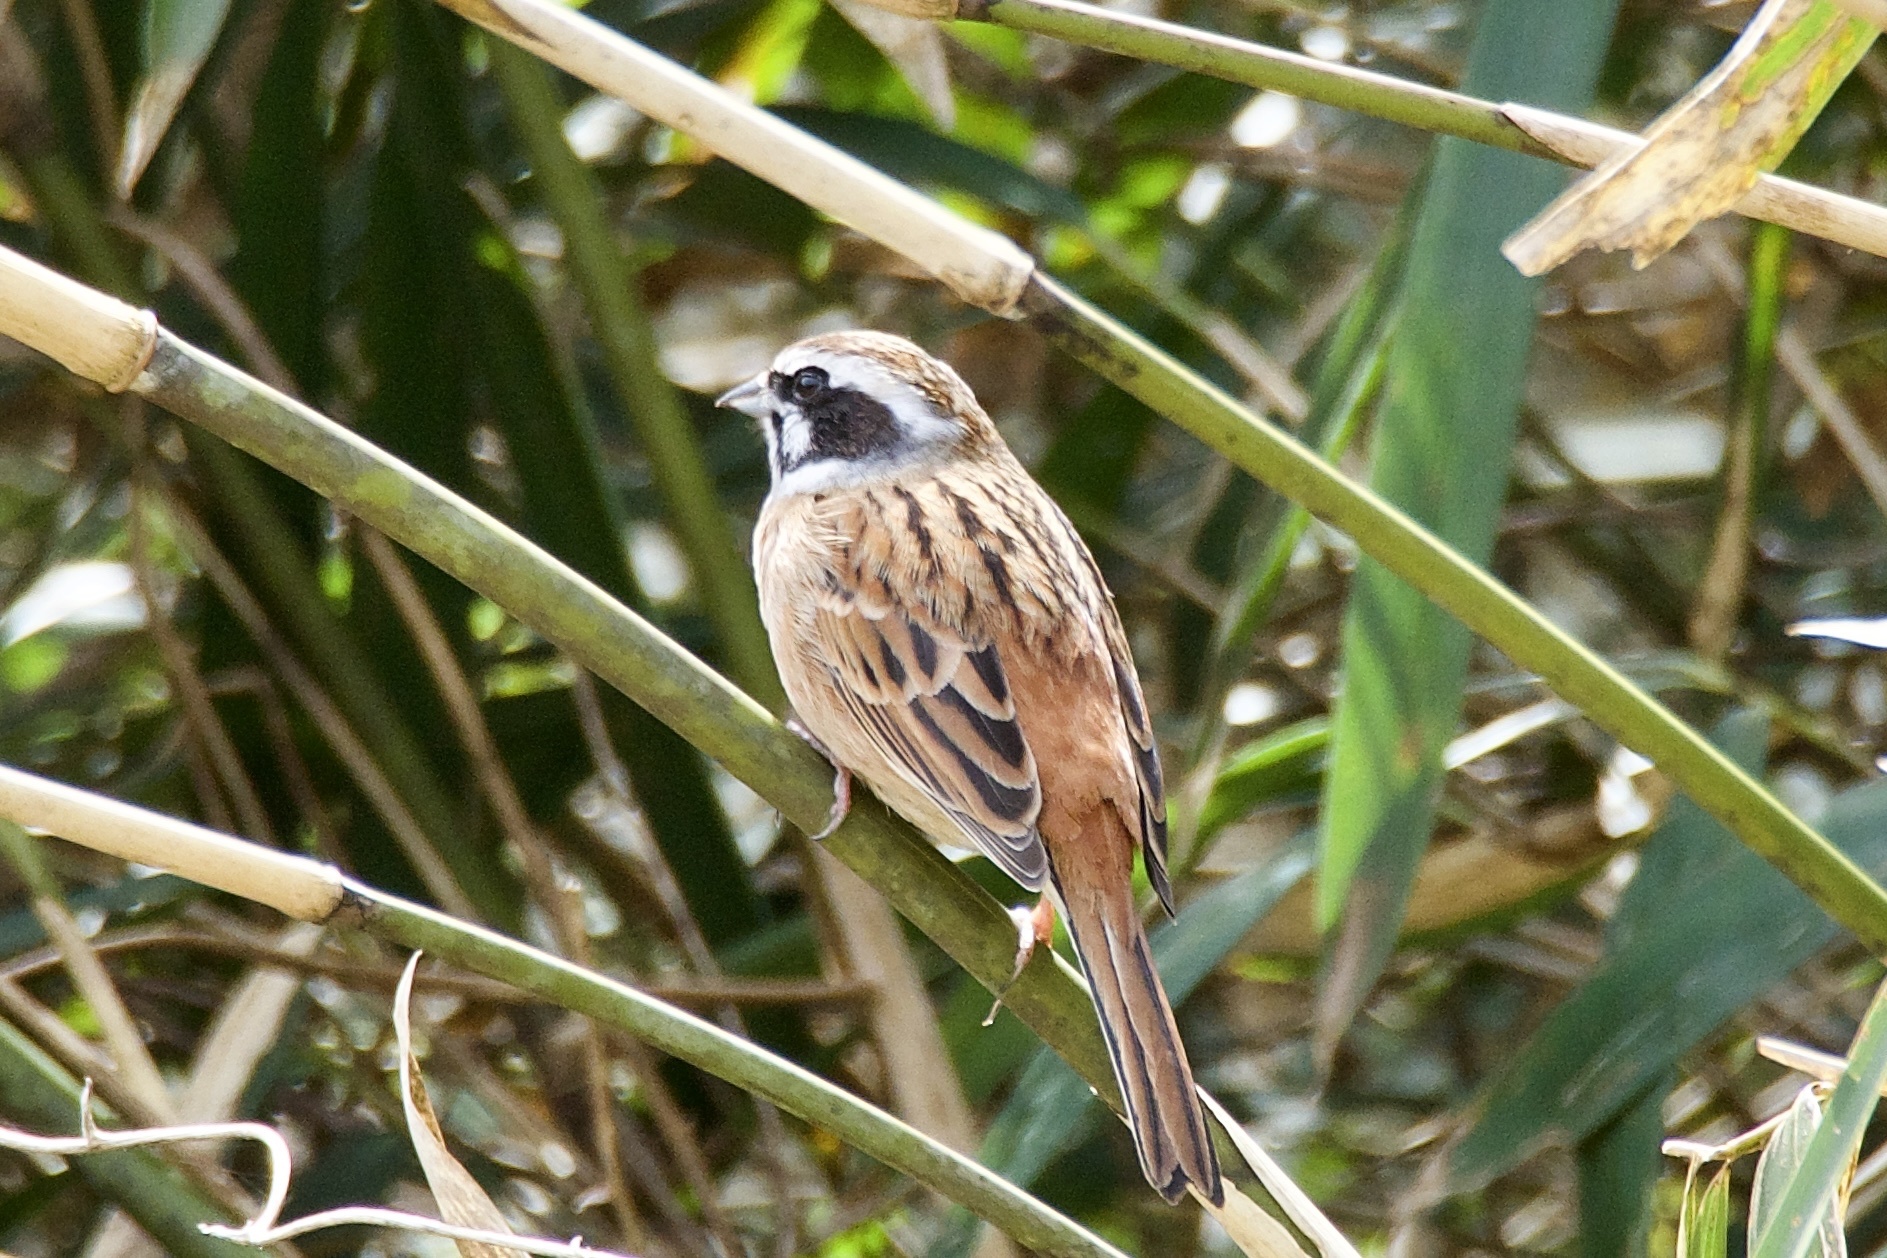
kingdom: Animalia
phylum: Chordata
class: Aves
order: Passeriformes
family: Emberizidae
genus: Emberiza
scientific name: Emberiza cioides
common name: Meadow bunting
